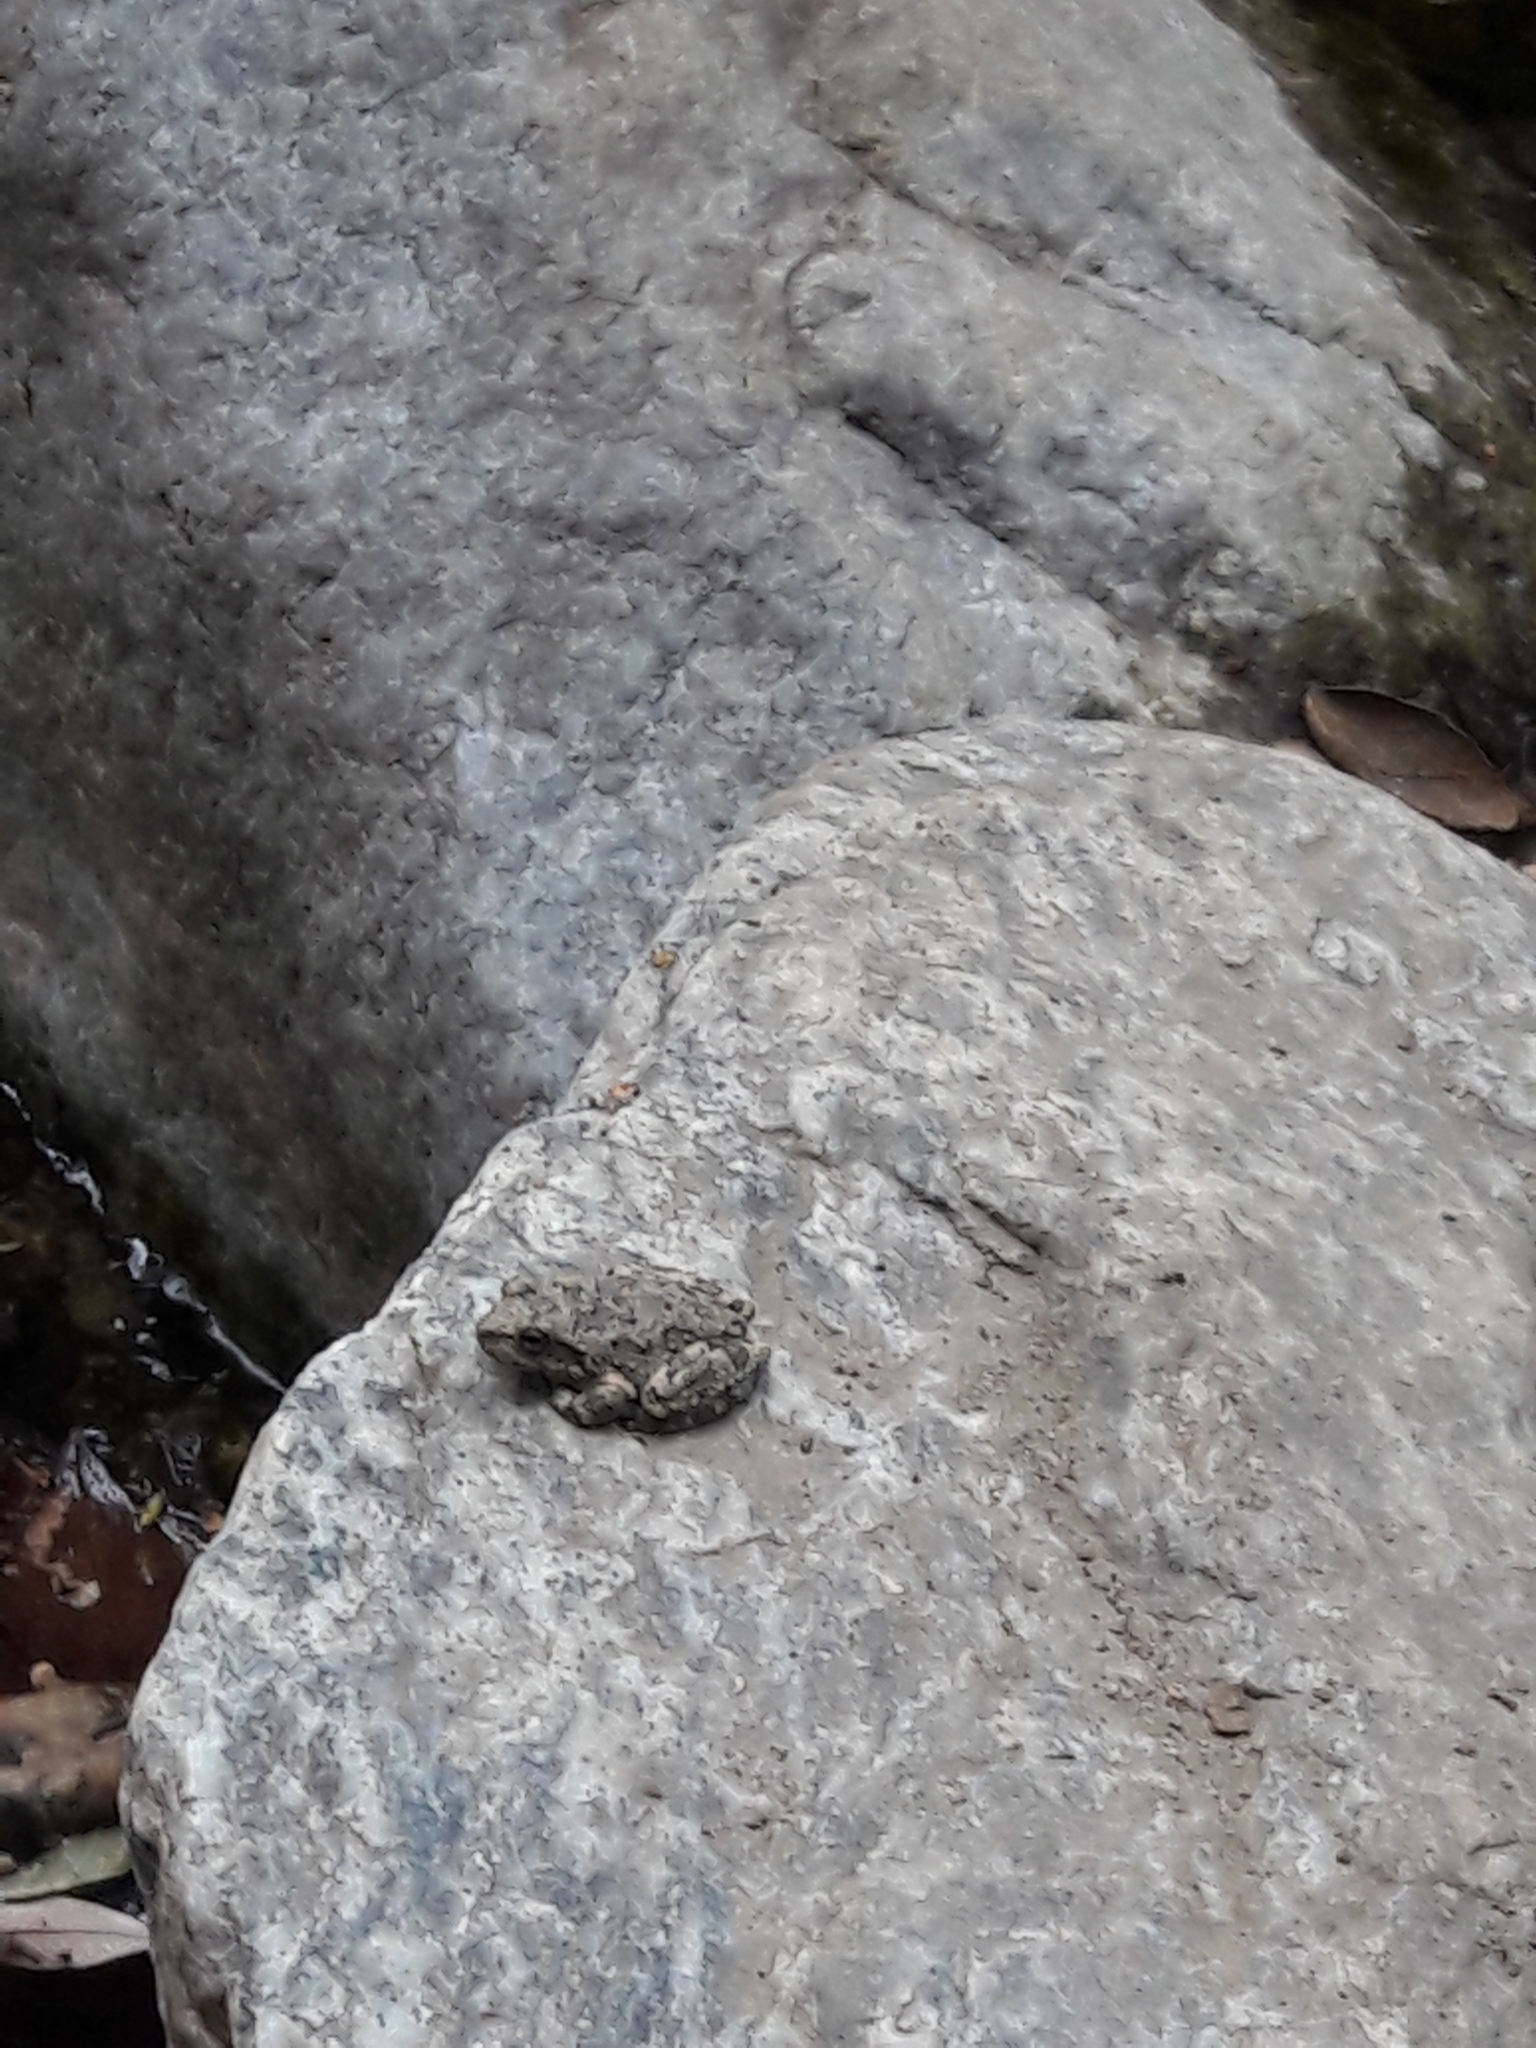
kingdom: Animalia
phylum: Chordata
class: Amphibia
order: Anura
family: Hylidae
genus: Pseudacris
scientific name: Pseudacris cadaverina
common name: California chorus frog
